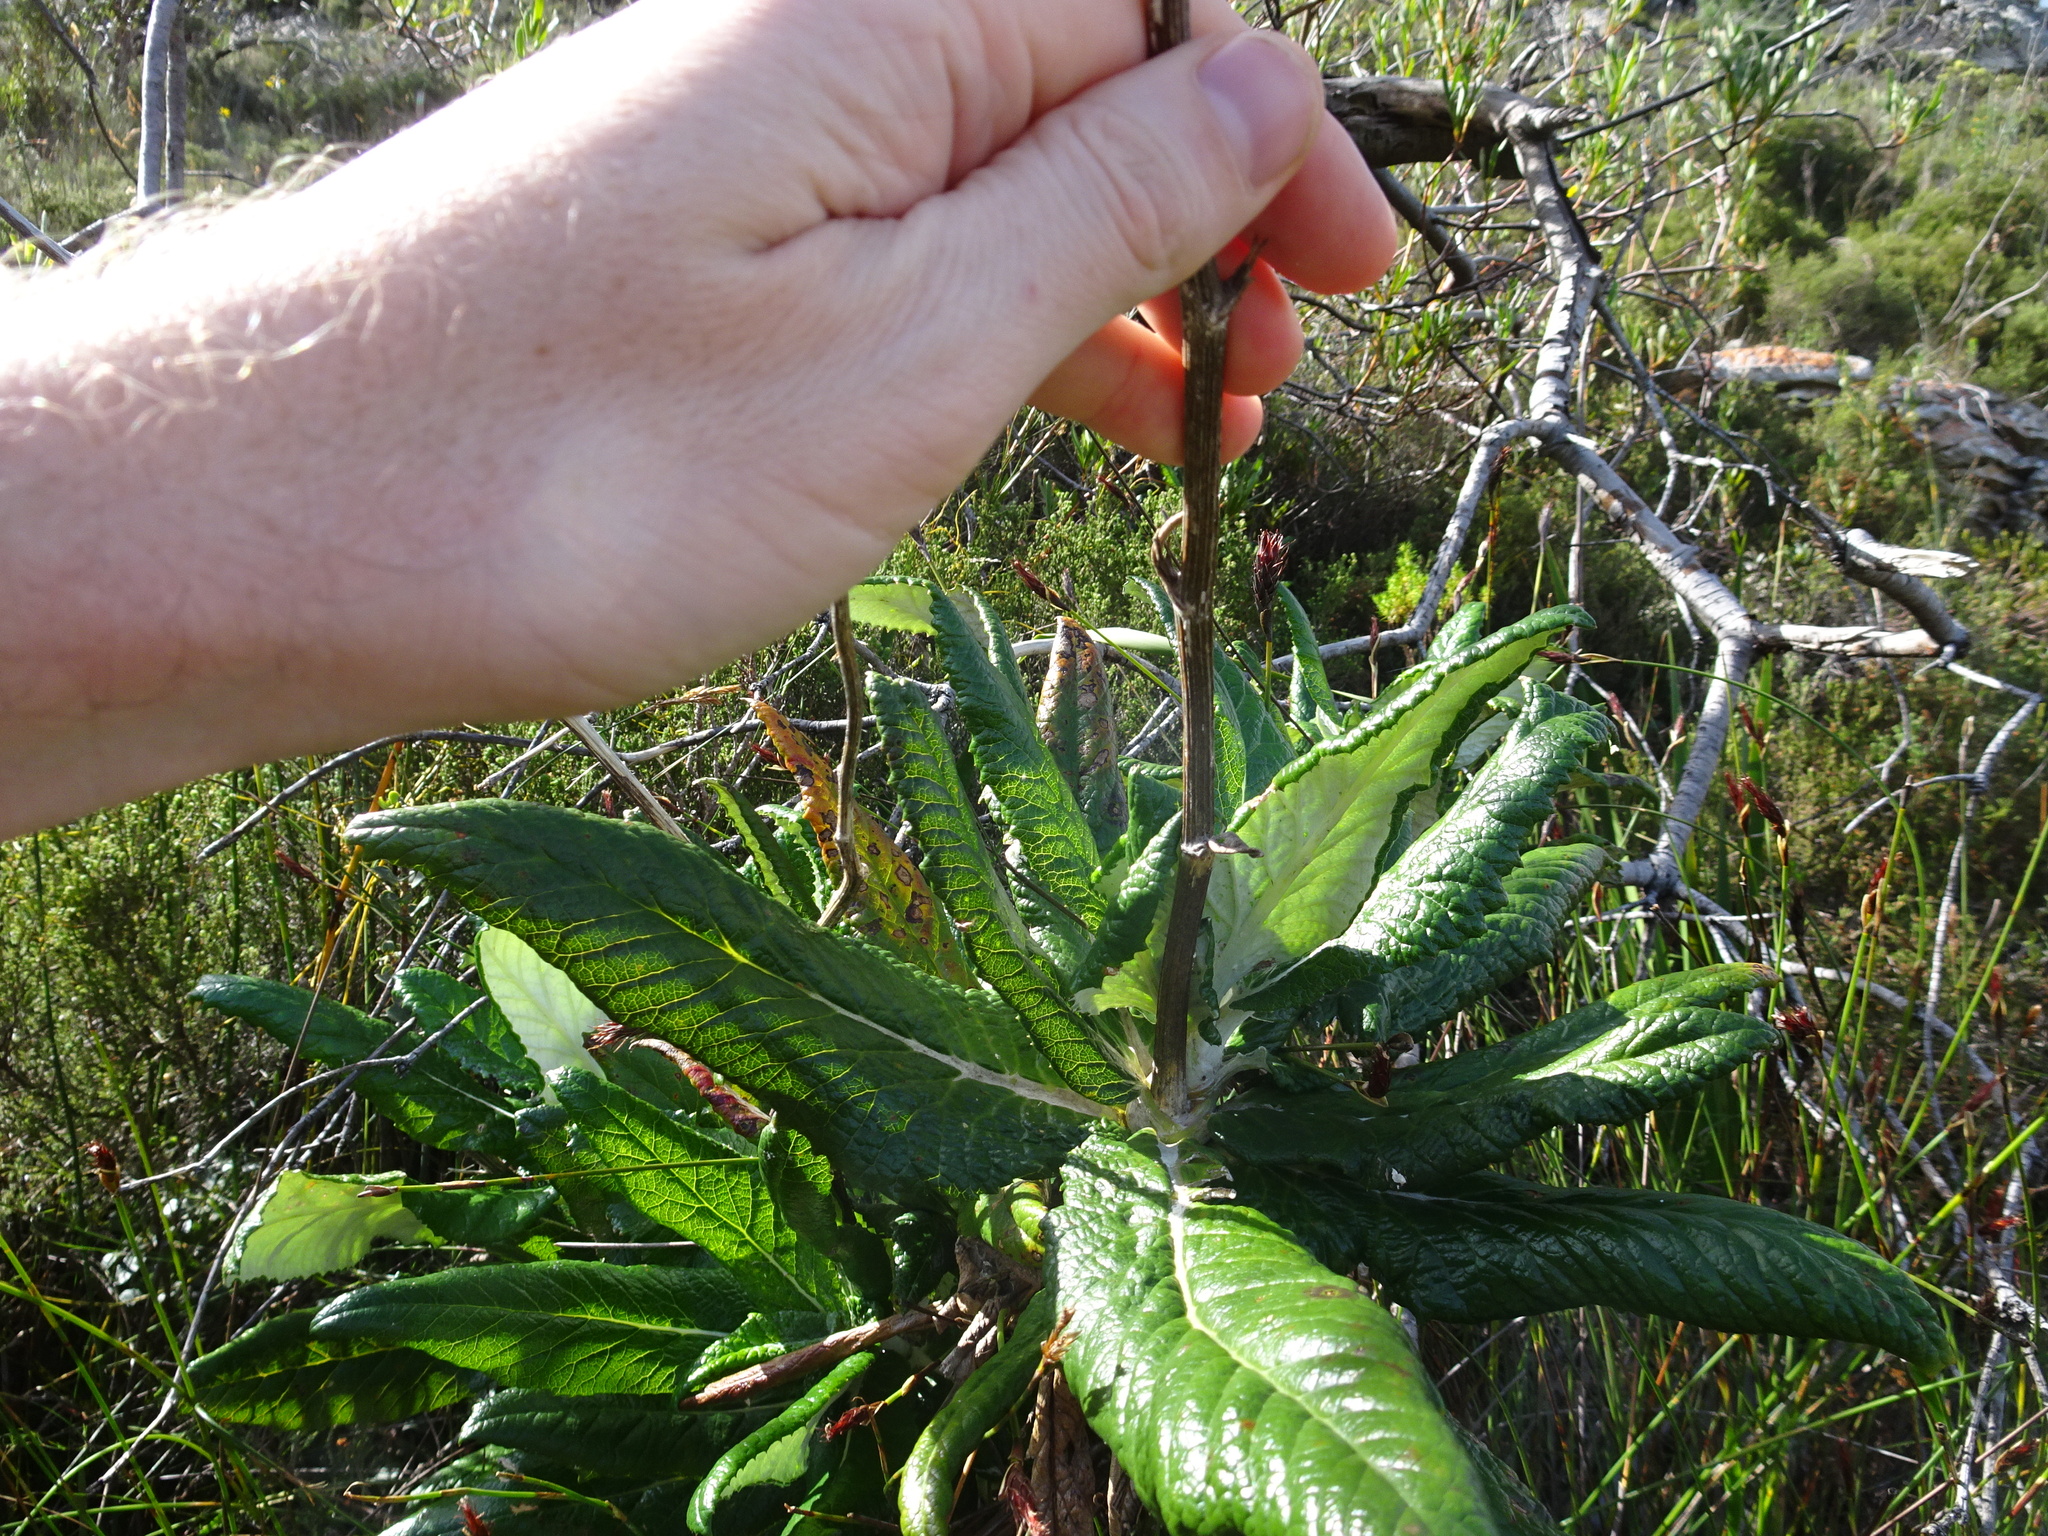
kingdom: Plantae
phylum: Tracheophyta
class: Magnoliopsida
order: Apiales
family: Apiaceae
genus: Hermas
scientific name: Hermas villosa
